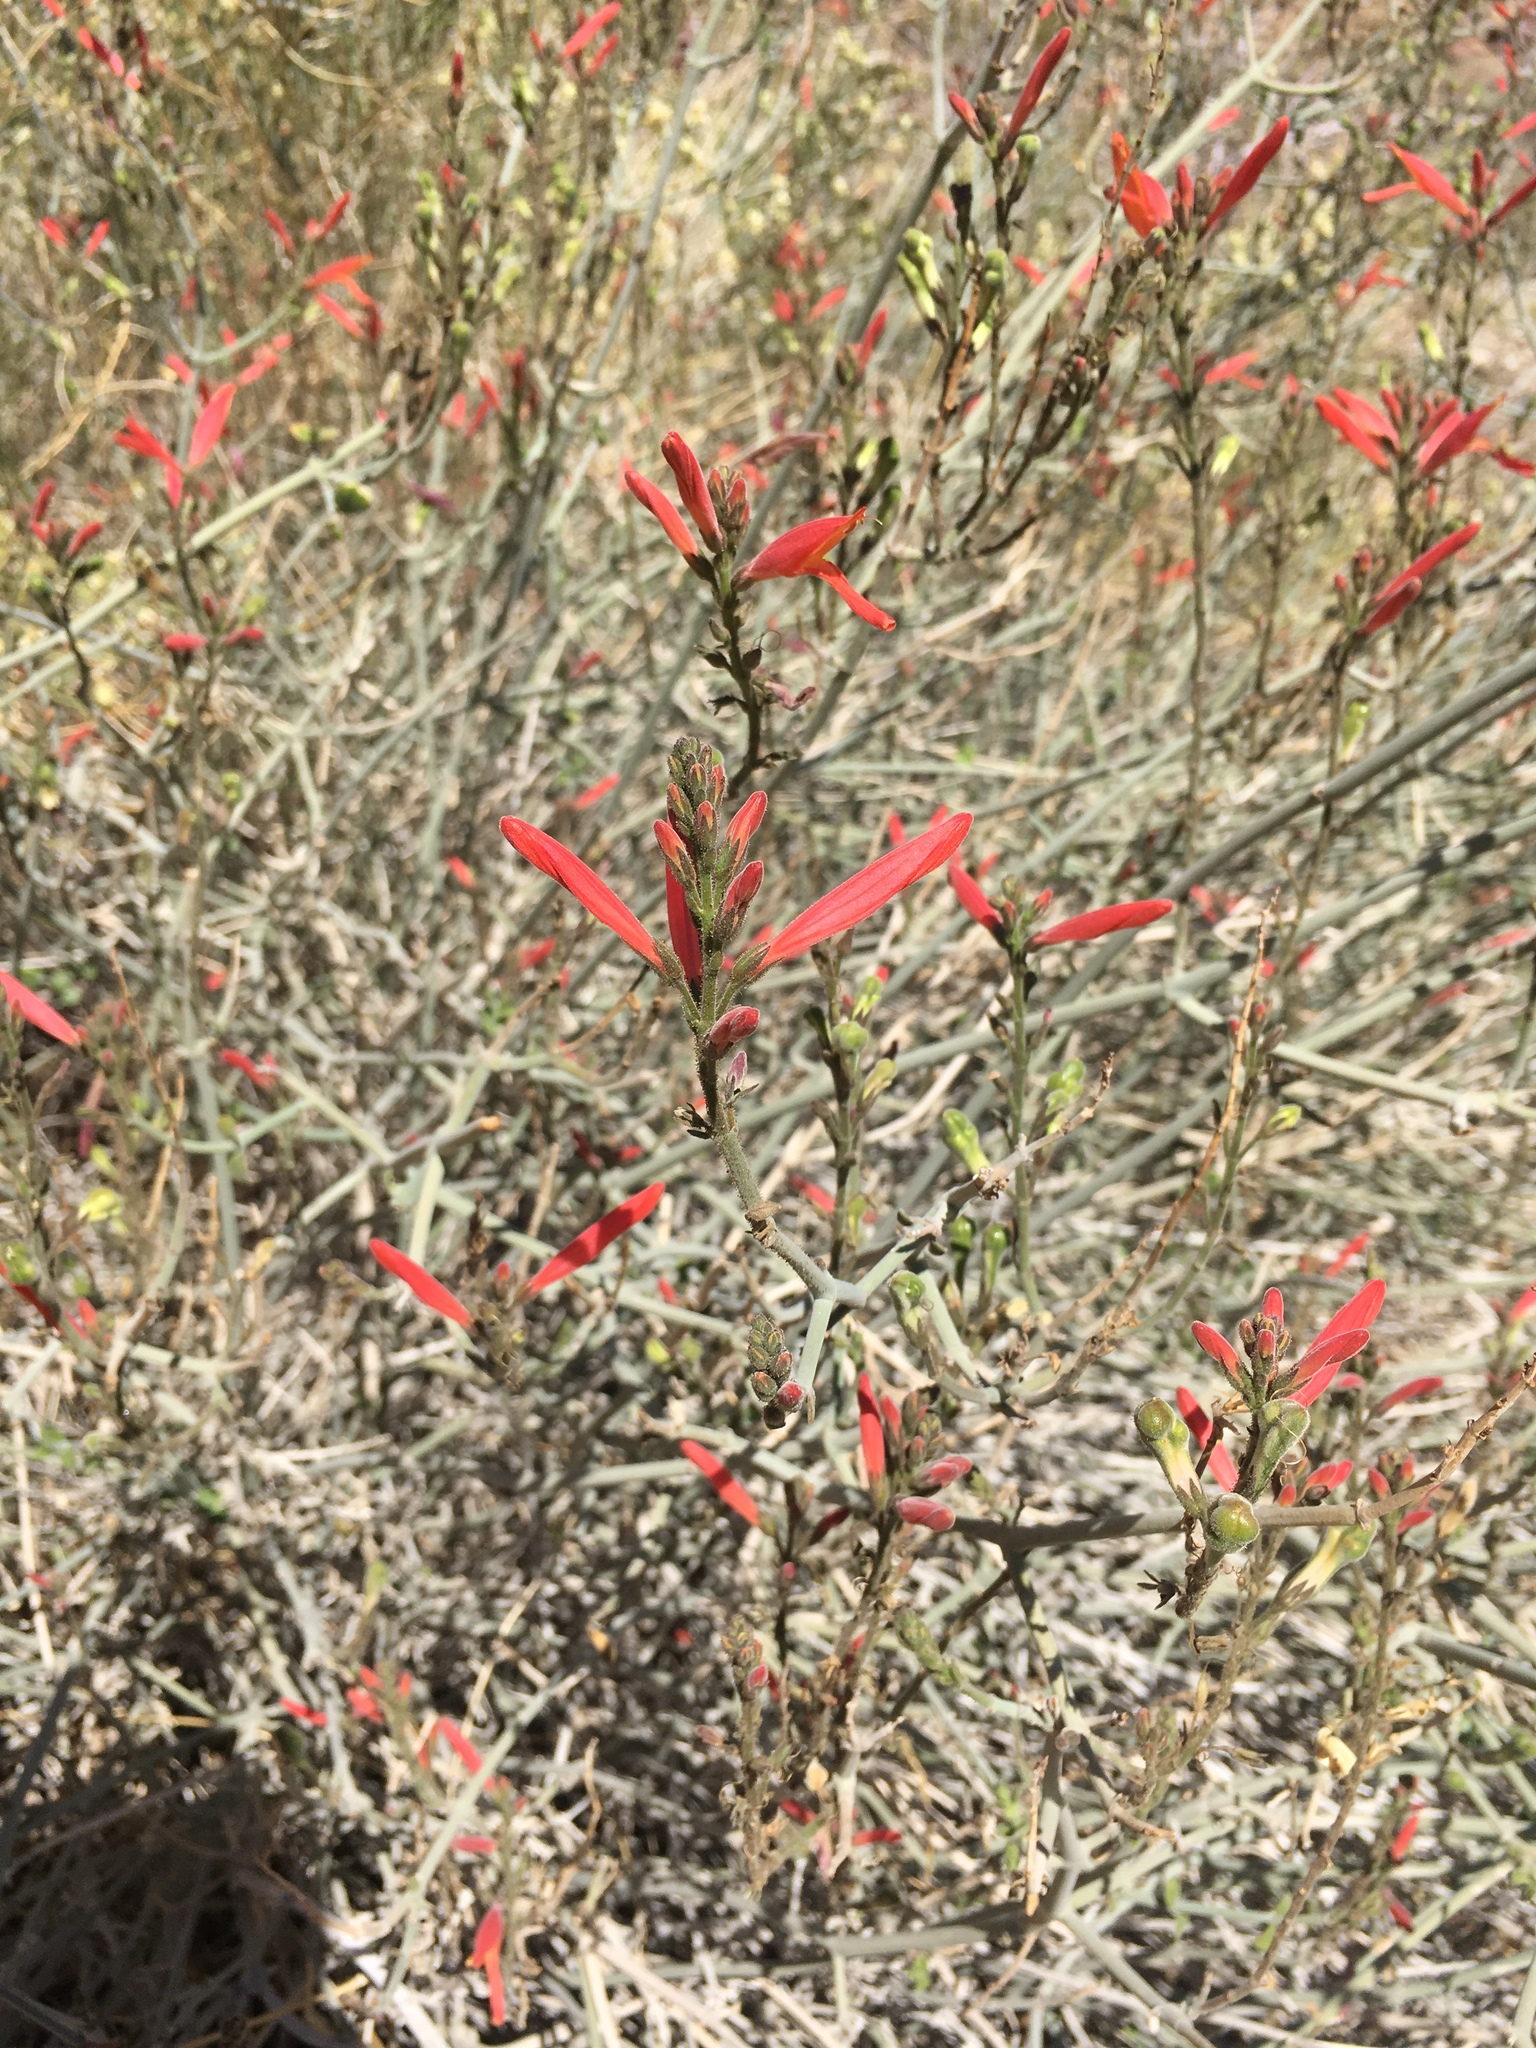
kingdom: Plantae
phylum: Tracheophyta
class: Magnoliopsida
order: Lamiales
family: Acanthaceae
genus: Justicia
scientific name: Justicia californica
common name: Chuparosa-honeysuckle
